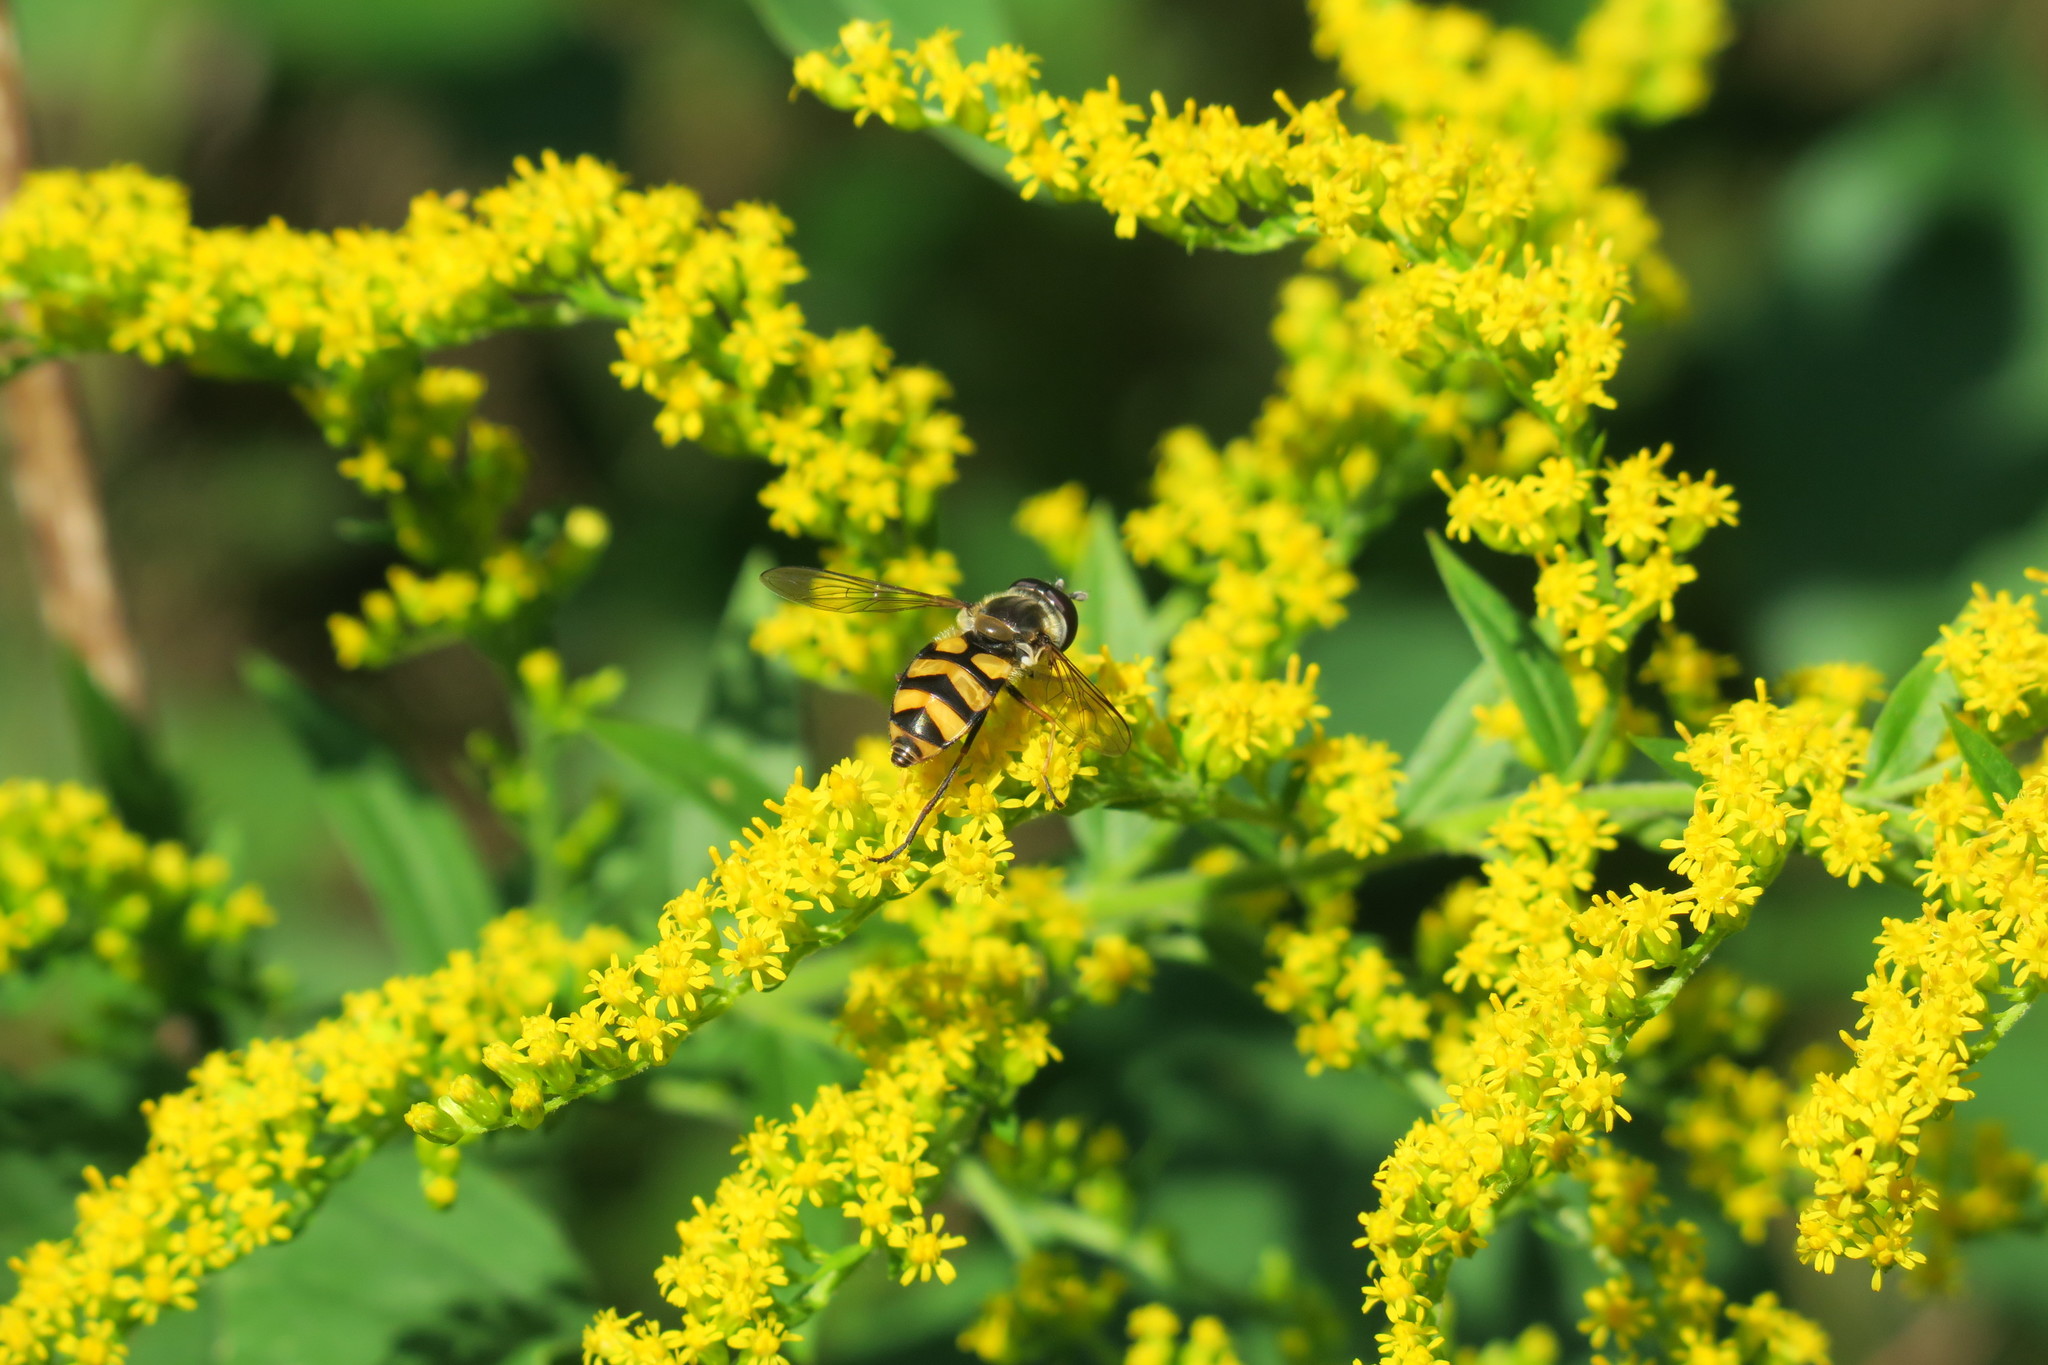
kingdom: Animalia
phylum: Arthropoda
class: Insecta
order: Diptera
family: Syrphidae
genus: Didea
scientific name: Didea fasciata
